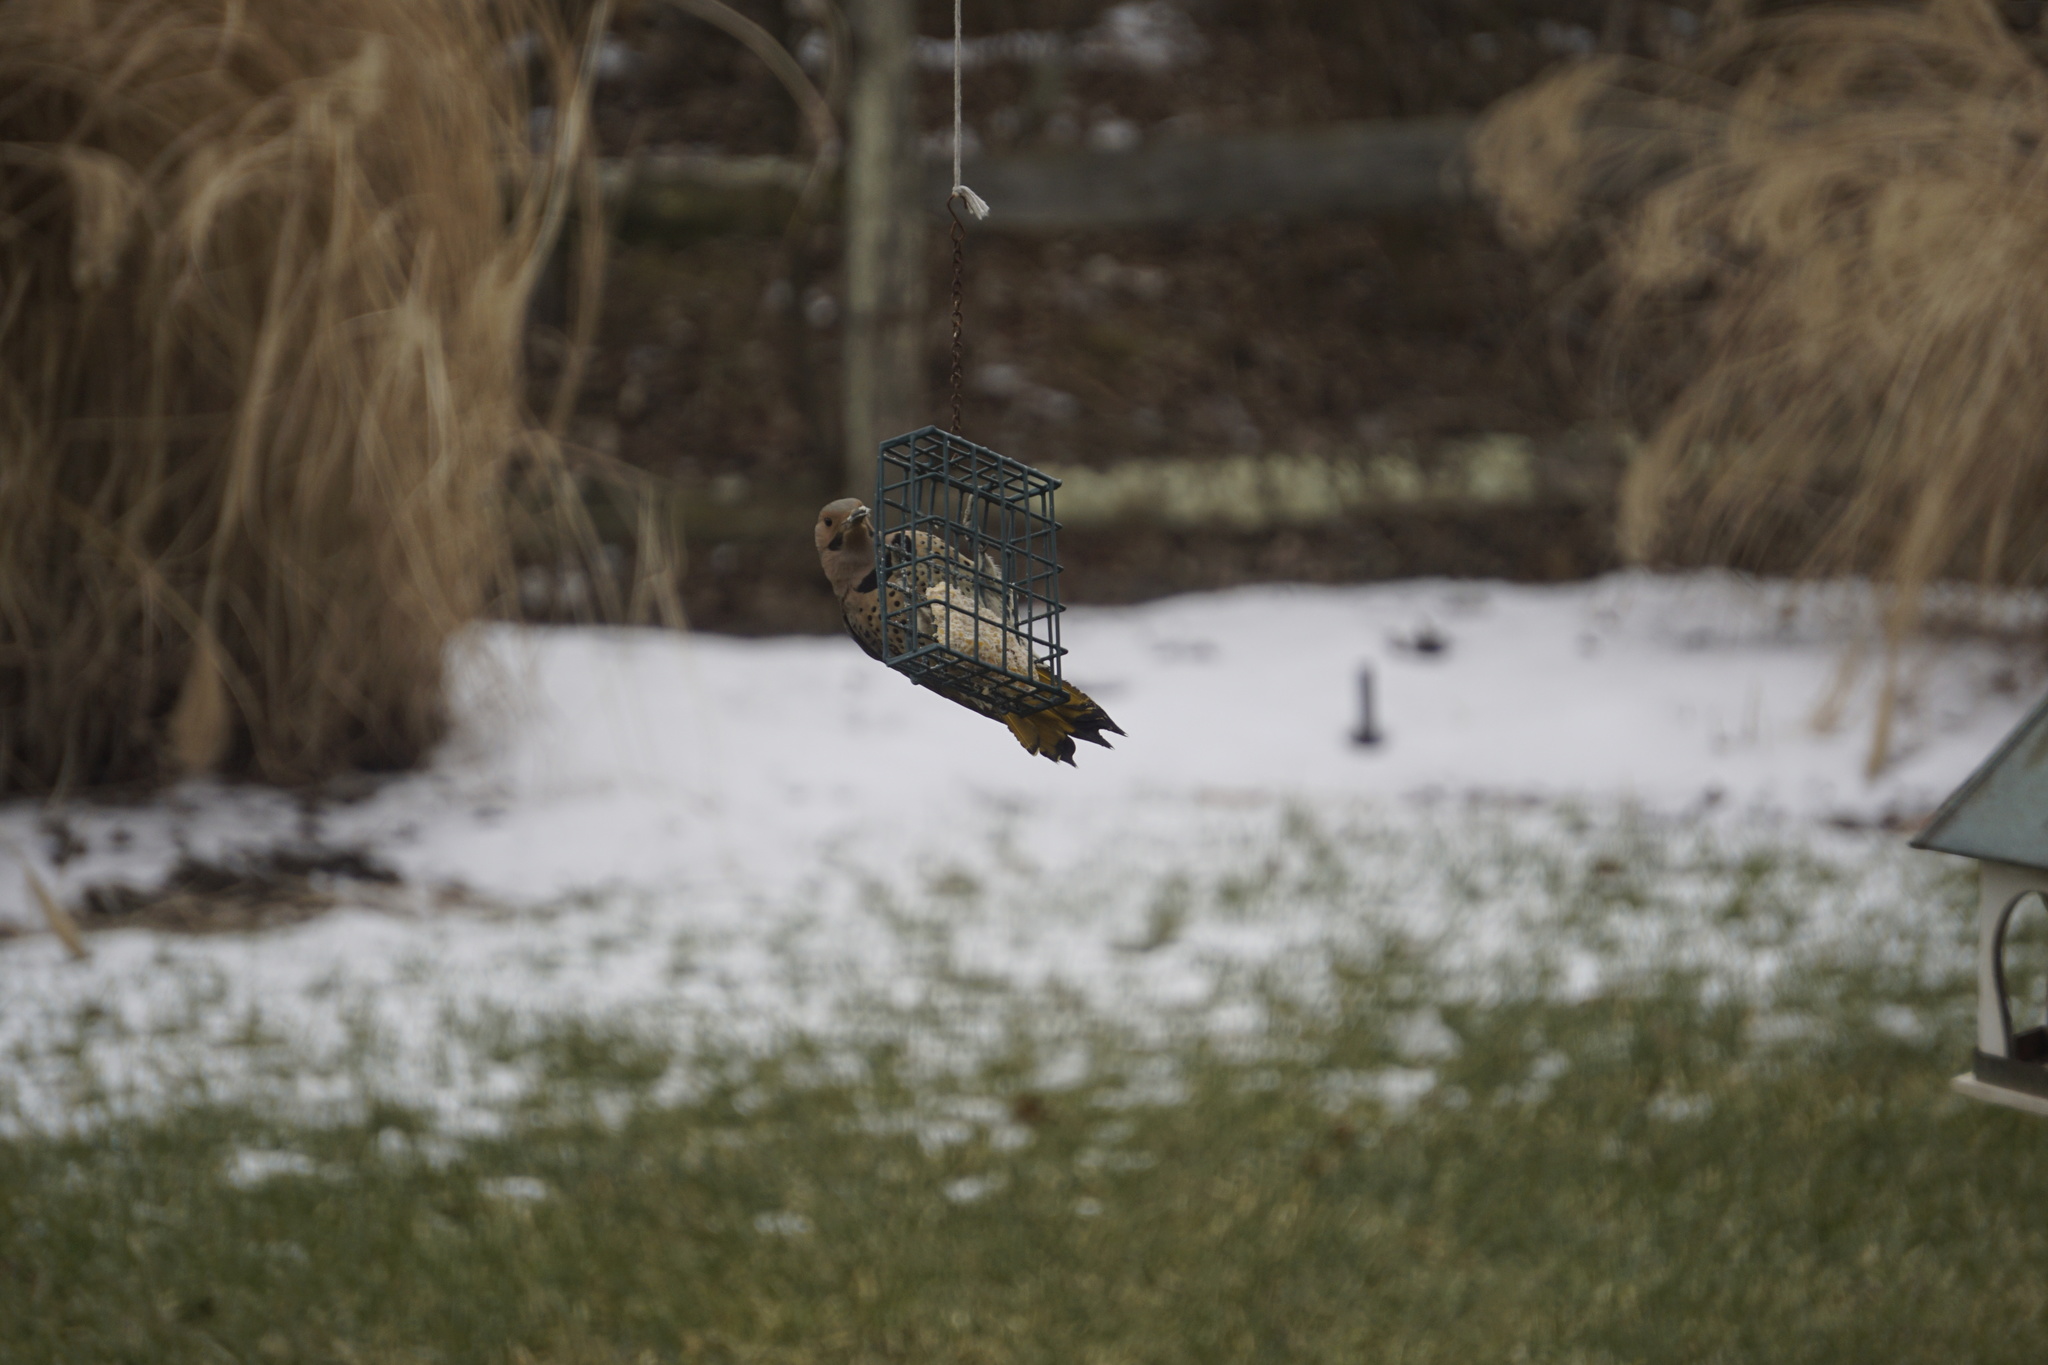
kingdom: Animalia
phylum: Chordata
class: Aves
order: Piciformes
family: Picidae
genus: Colaptes
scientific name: Colaptes auratus
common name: Northern flicker
